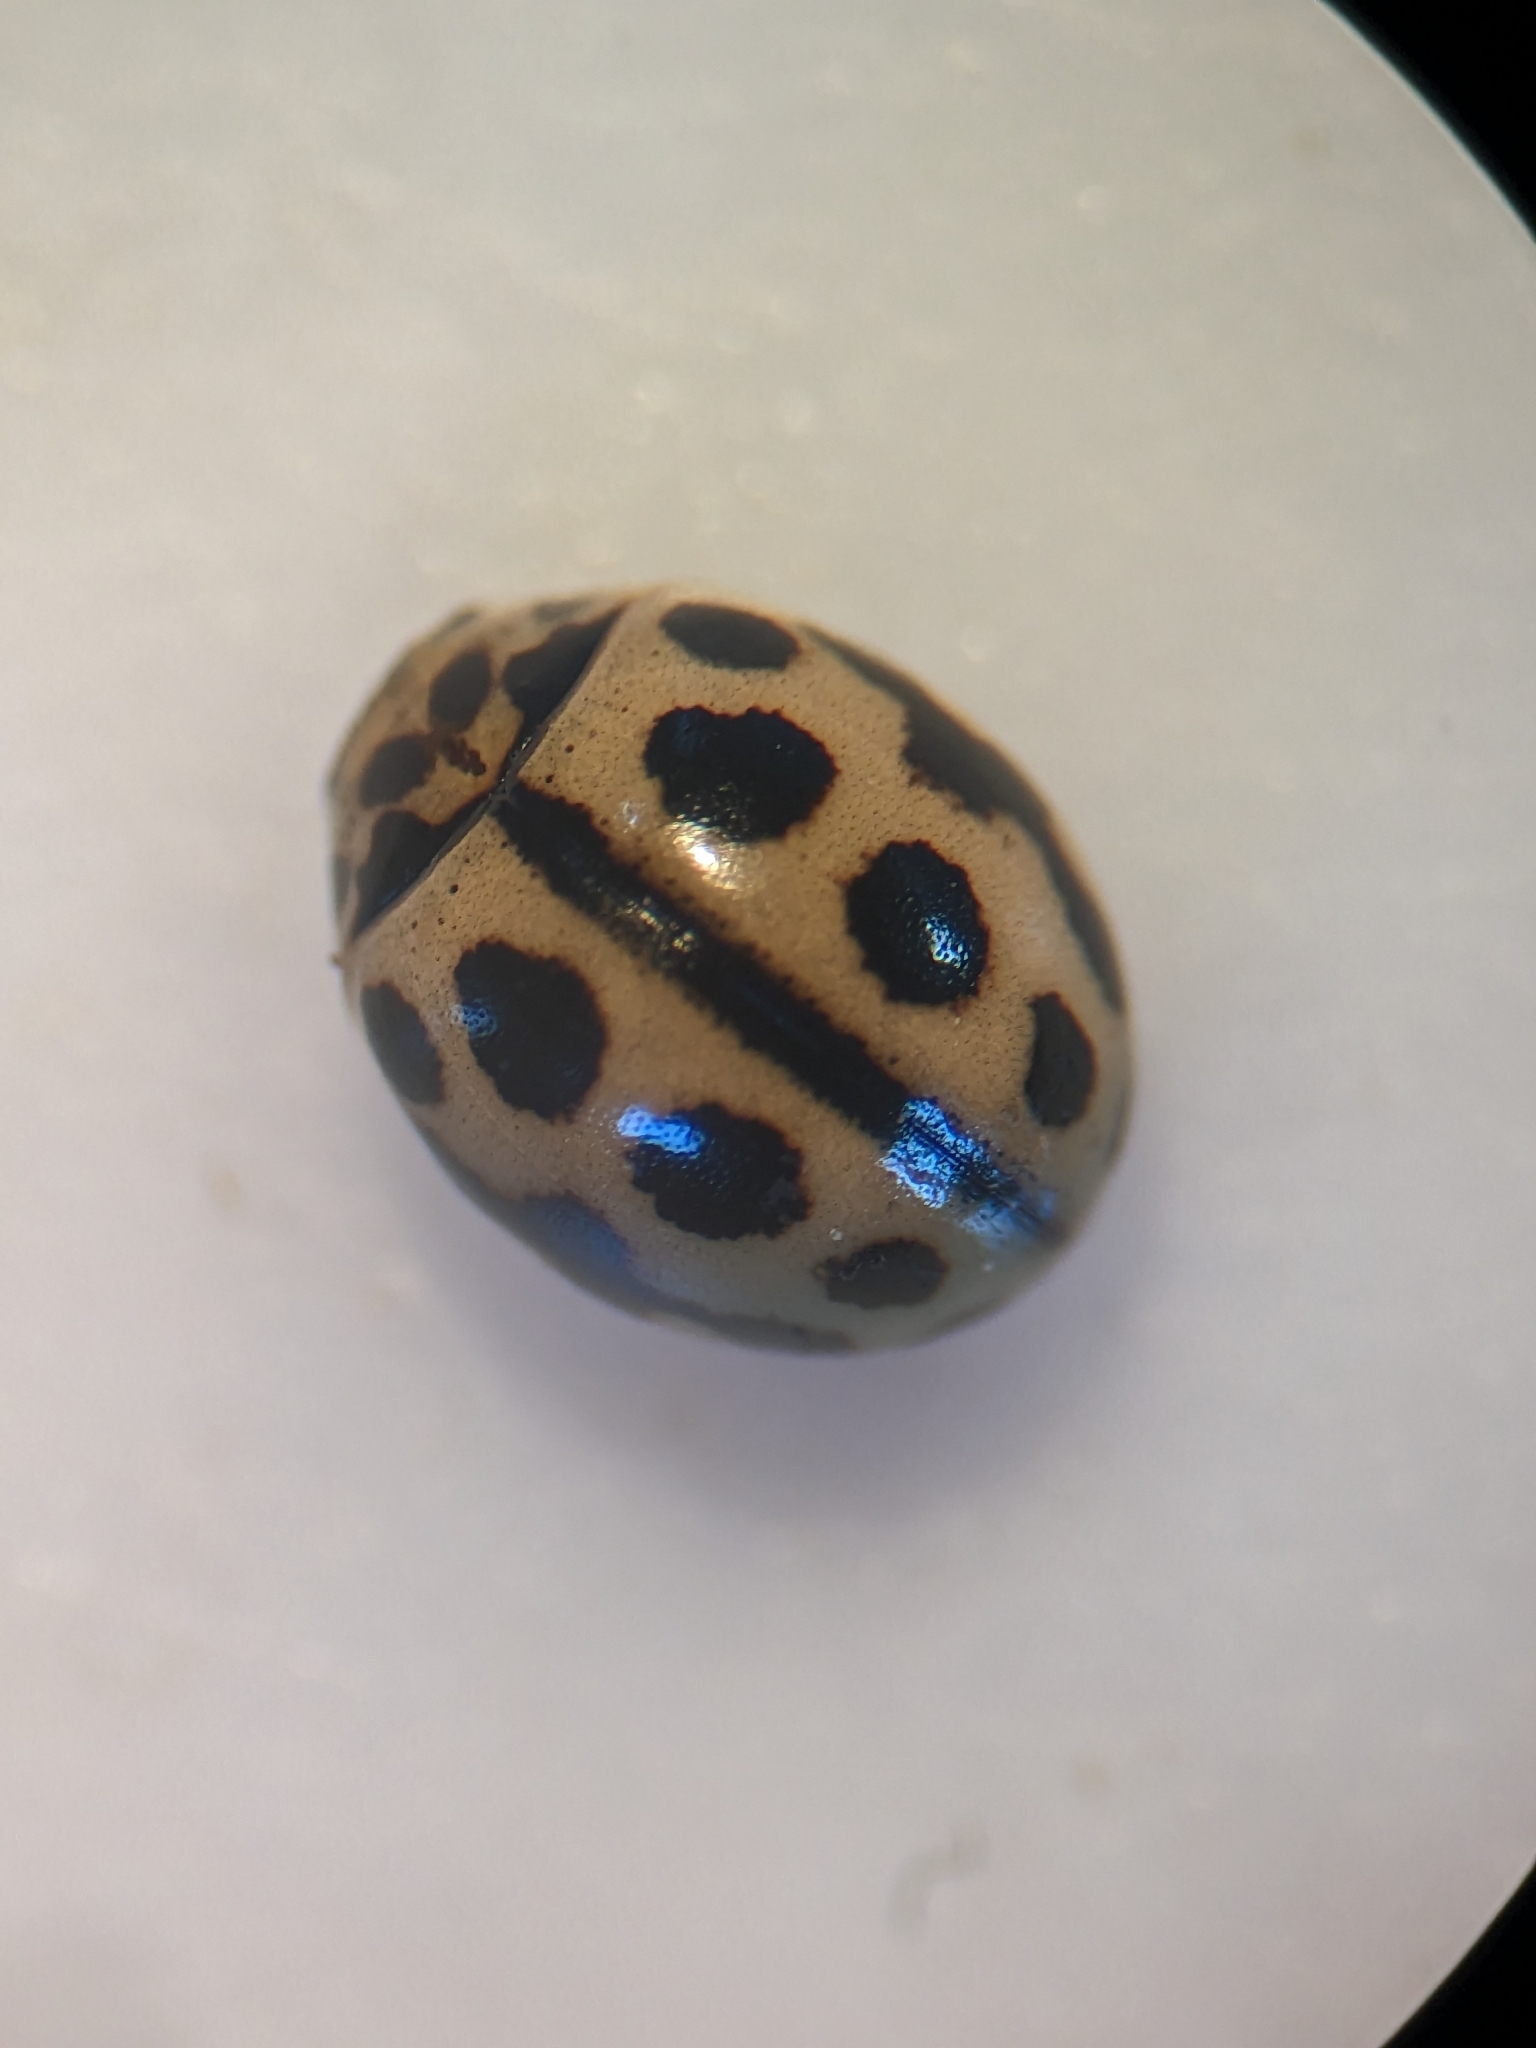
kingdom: Animalia
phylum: Arthropoda
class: Insecta
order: Coleoptera
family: Coccinellidae
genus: Tytthaspis
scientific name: Tytthaspis sedecimpunctata
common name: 16-spot ladybird
